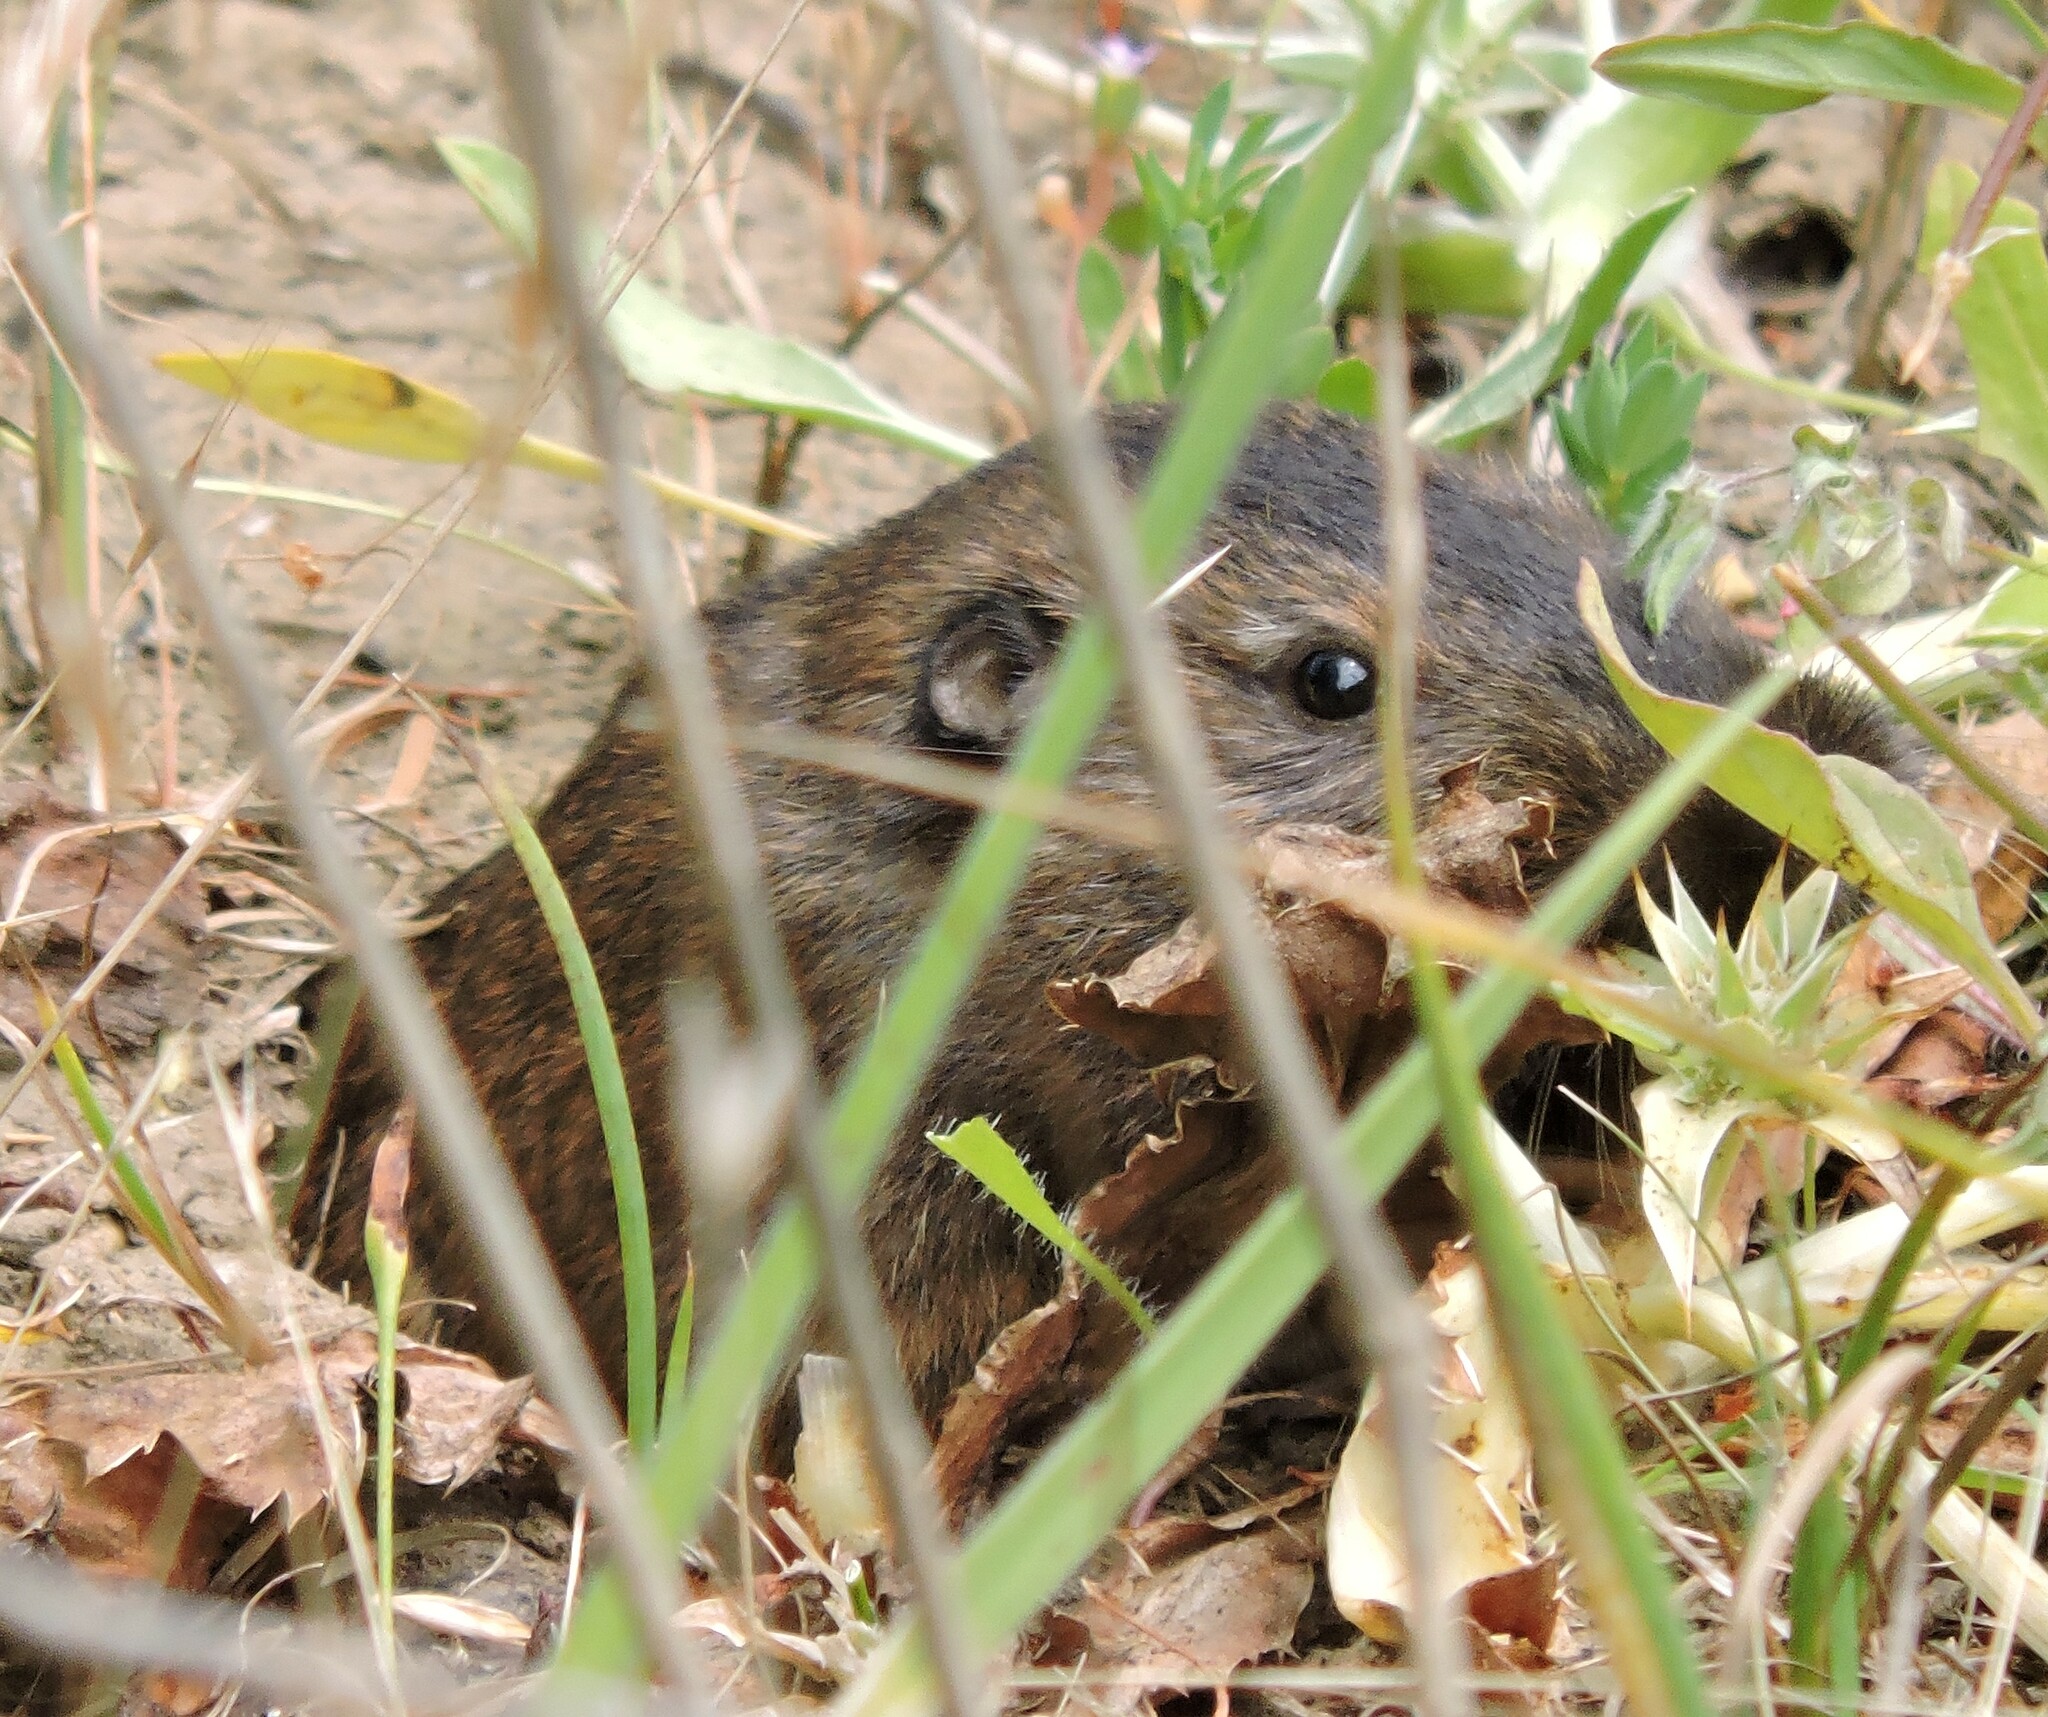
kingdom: Animalia
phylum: Chordata
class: Mammalia
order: Rodentia
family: Geomyidae
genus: Thomomys
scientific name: Thomomys bottae
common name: Botta's pocket gopher
